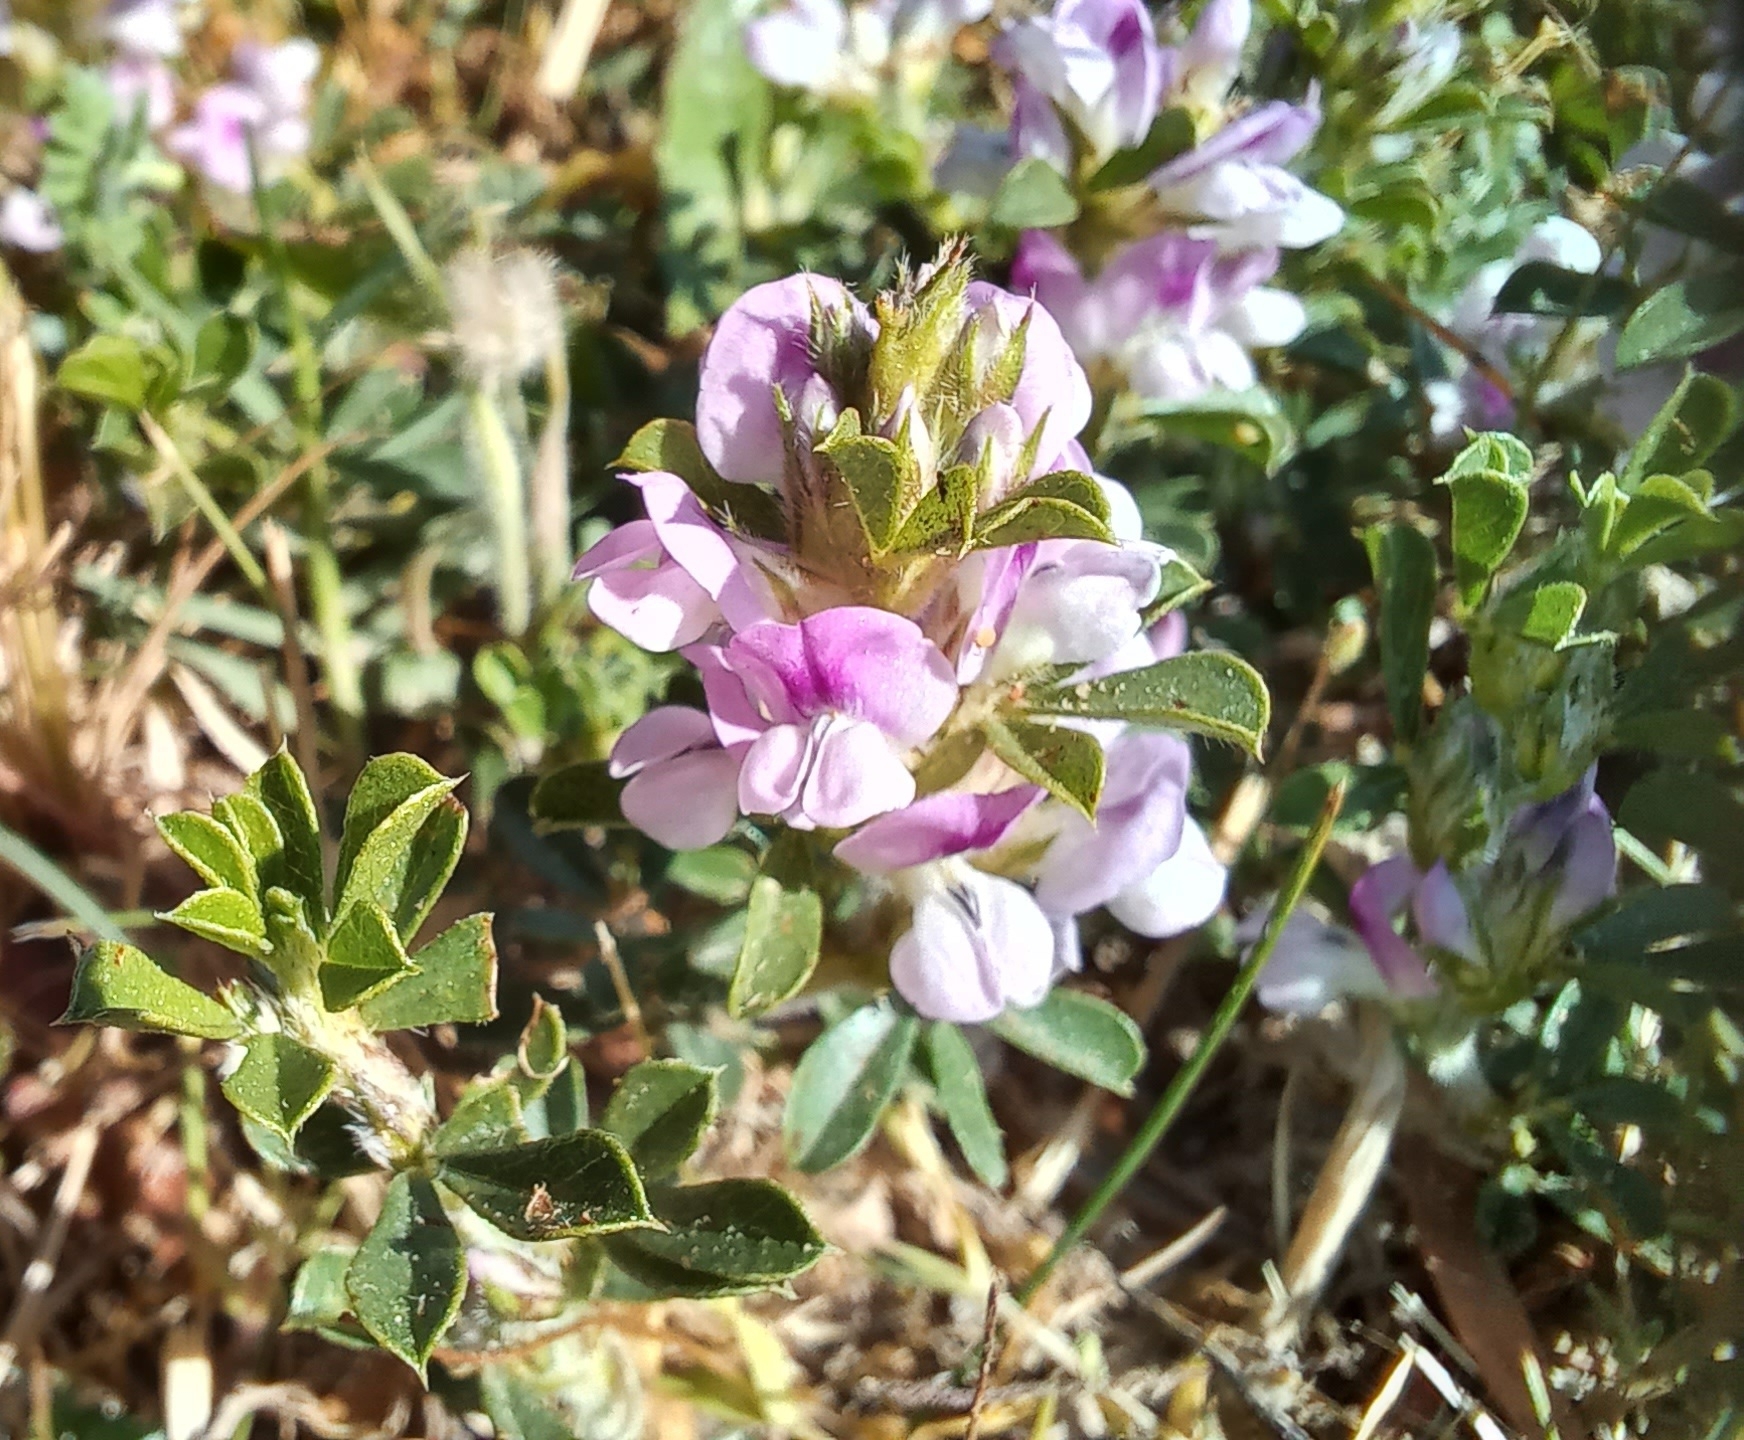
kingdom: Plantae
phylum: Tracheophyta
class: Magnoliopsida
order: Fabales
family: Fabaceae
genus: Psoralea
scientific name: Psoralea
